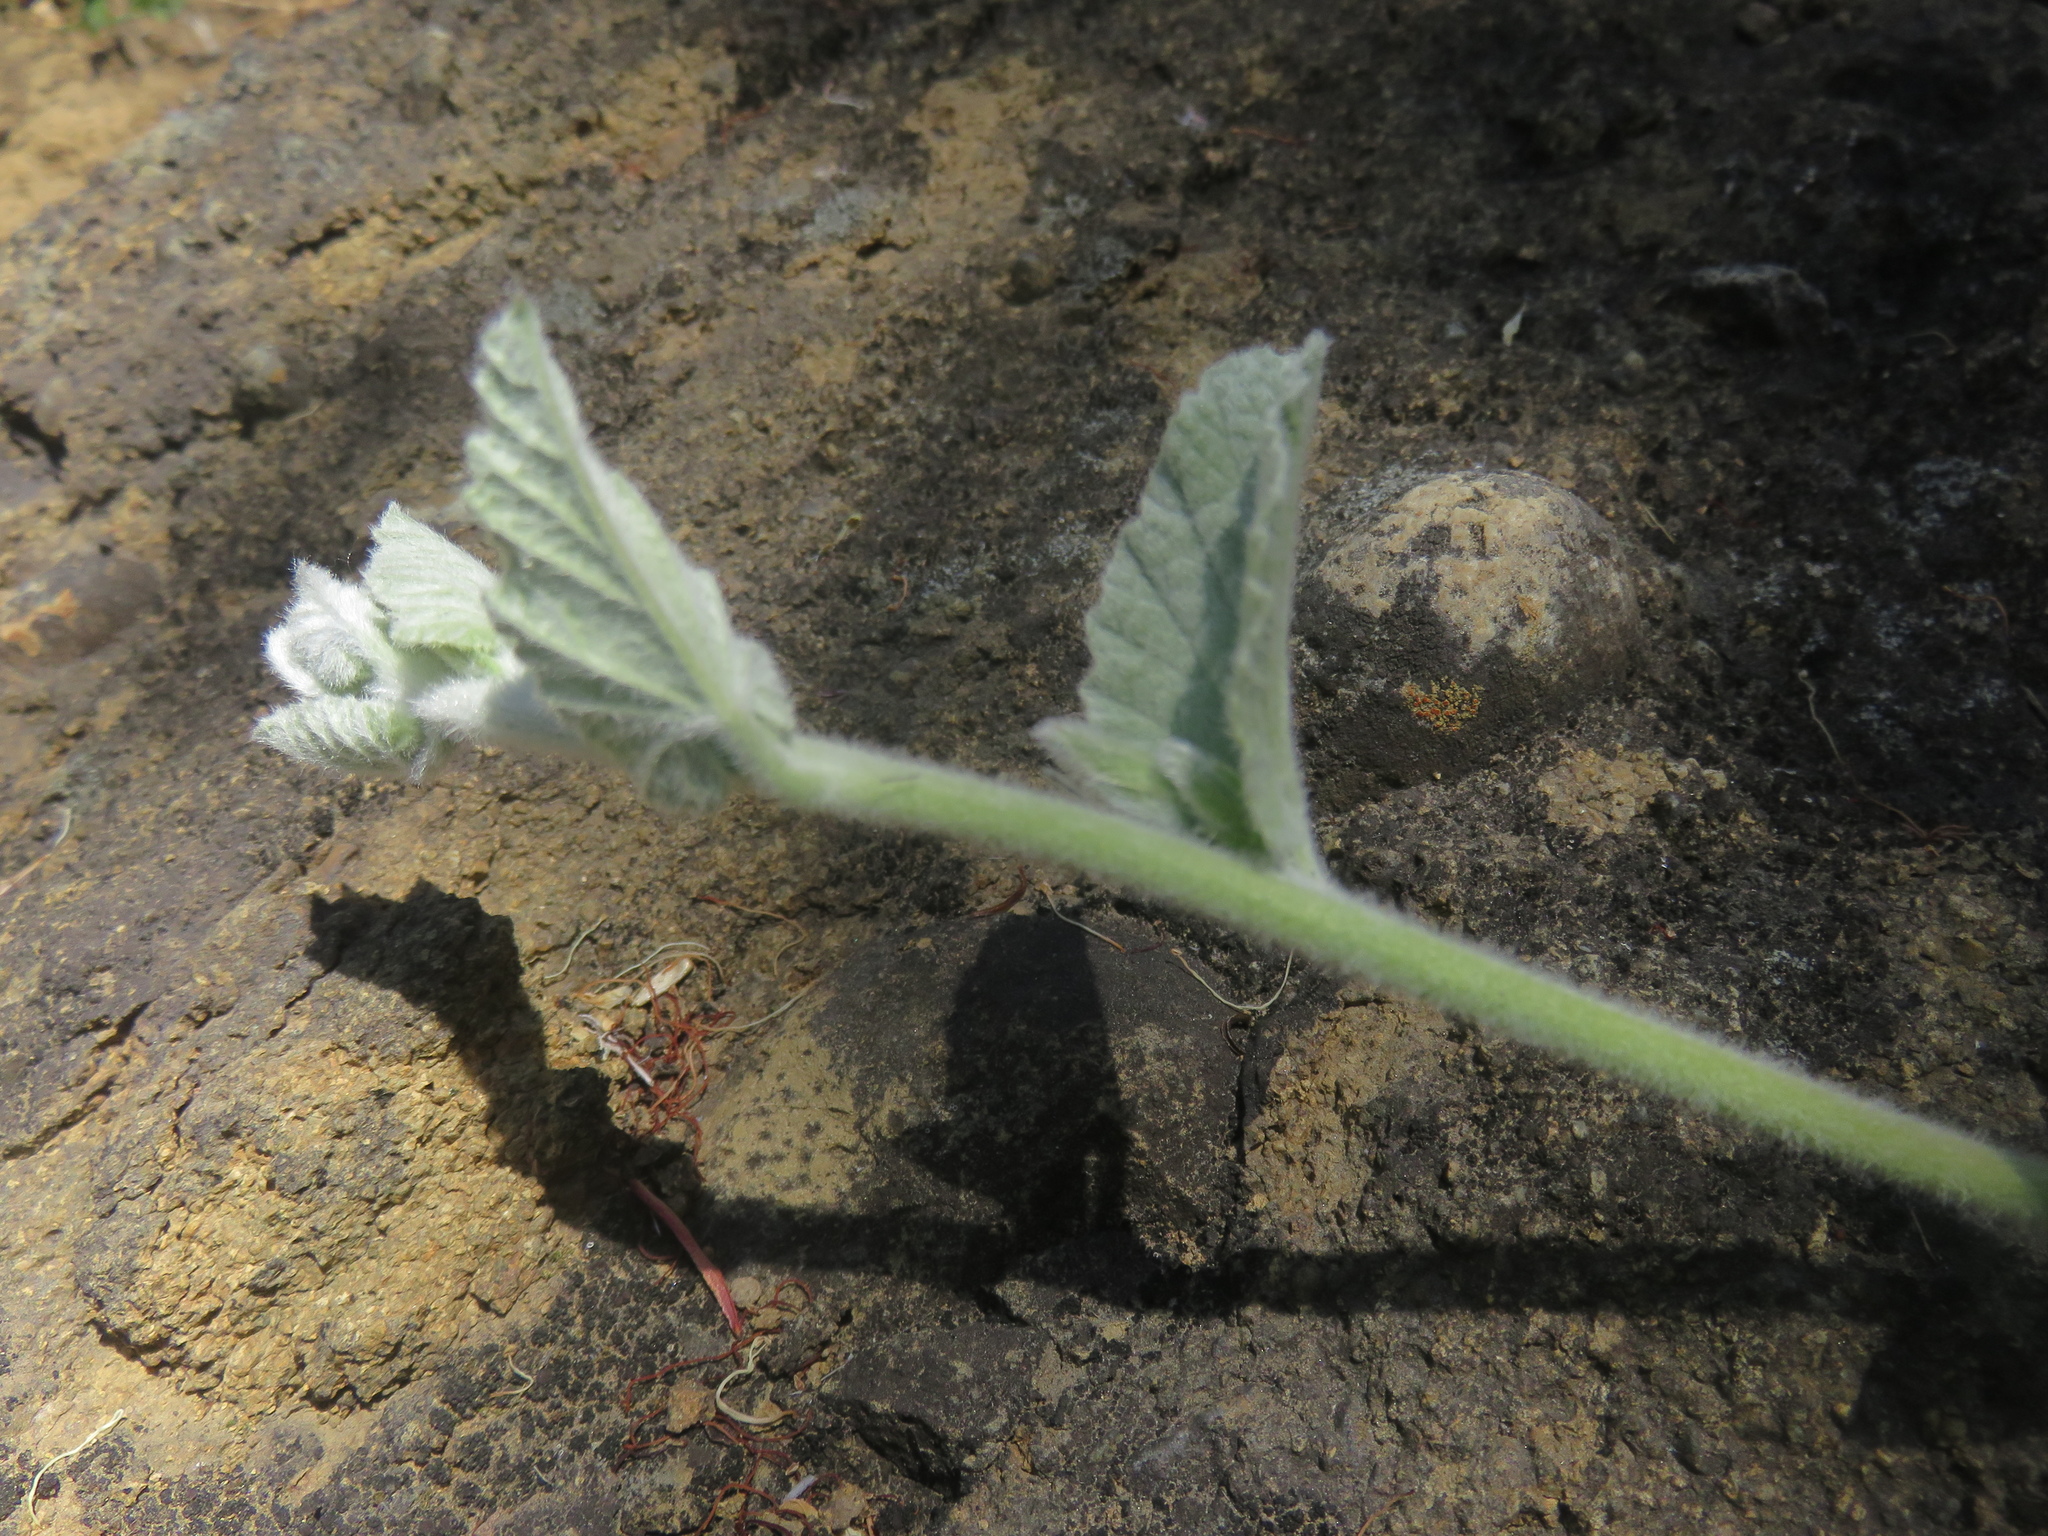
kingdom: Plantae
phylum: Tracheophyta
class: Magnoliopsida
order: Solanales
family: Convolvulaceae
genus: Convolvulus
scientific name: Convolvulus hermanniae
